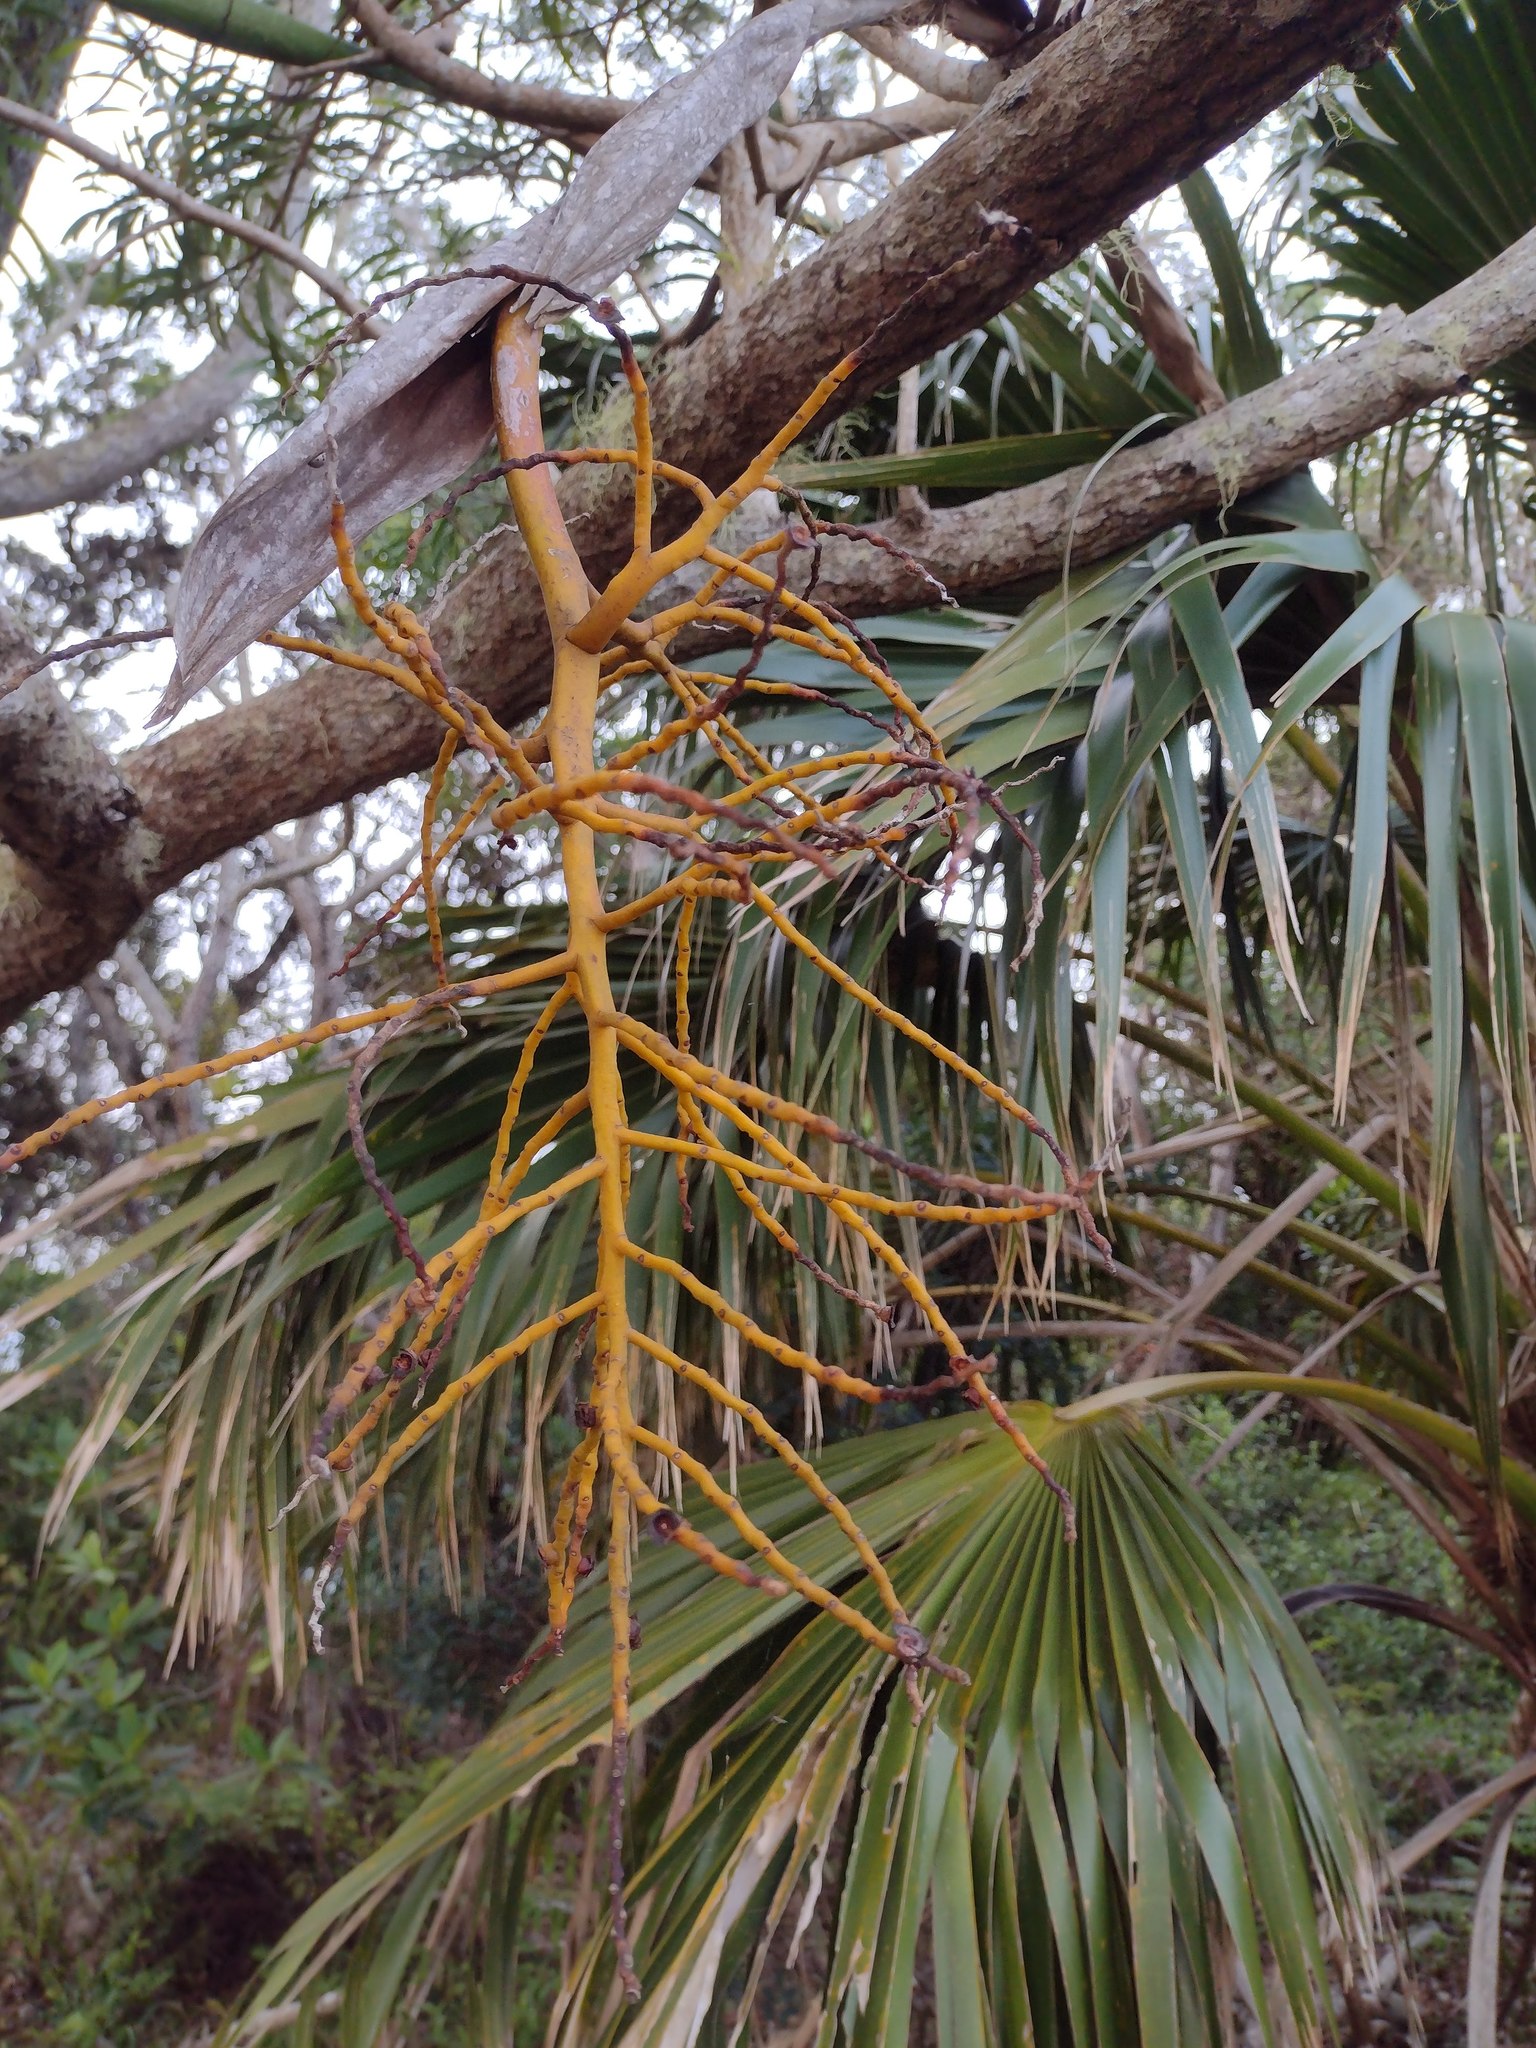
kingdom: Plantae
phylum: Tracheophyta
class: Liliopsida
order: Arecales
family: Arecaceae
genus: Pritchardia
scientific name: Pritchardia kaalae
